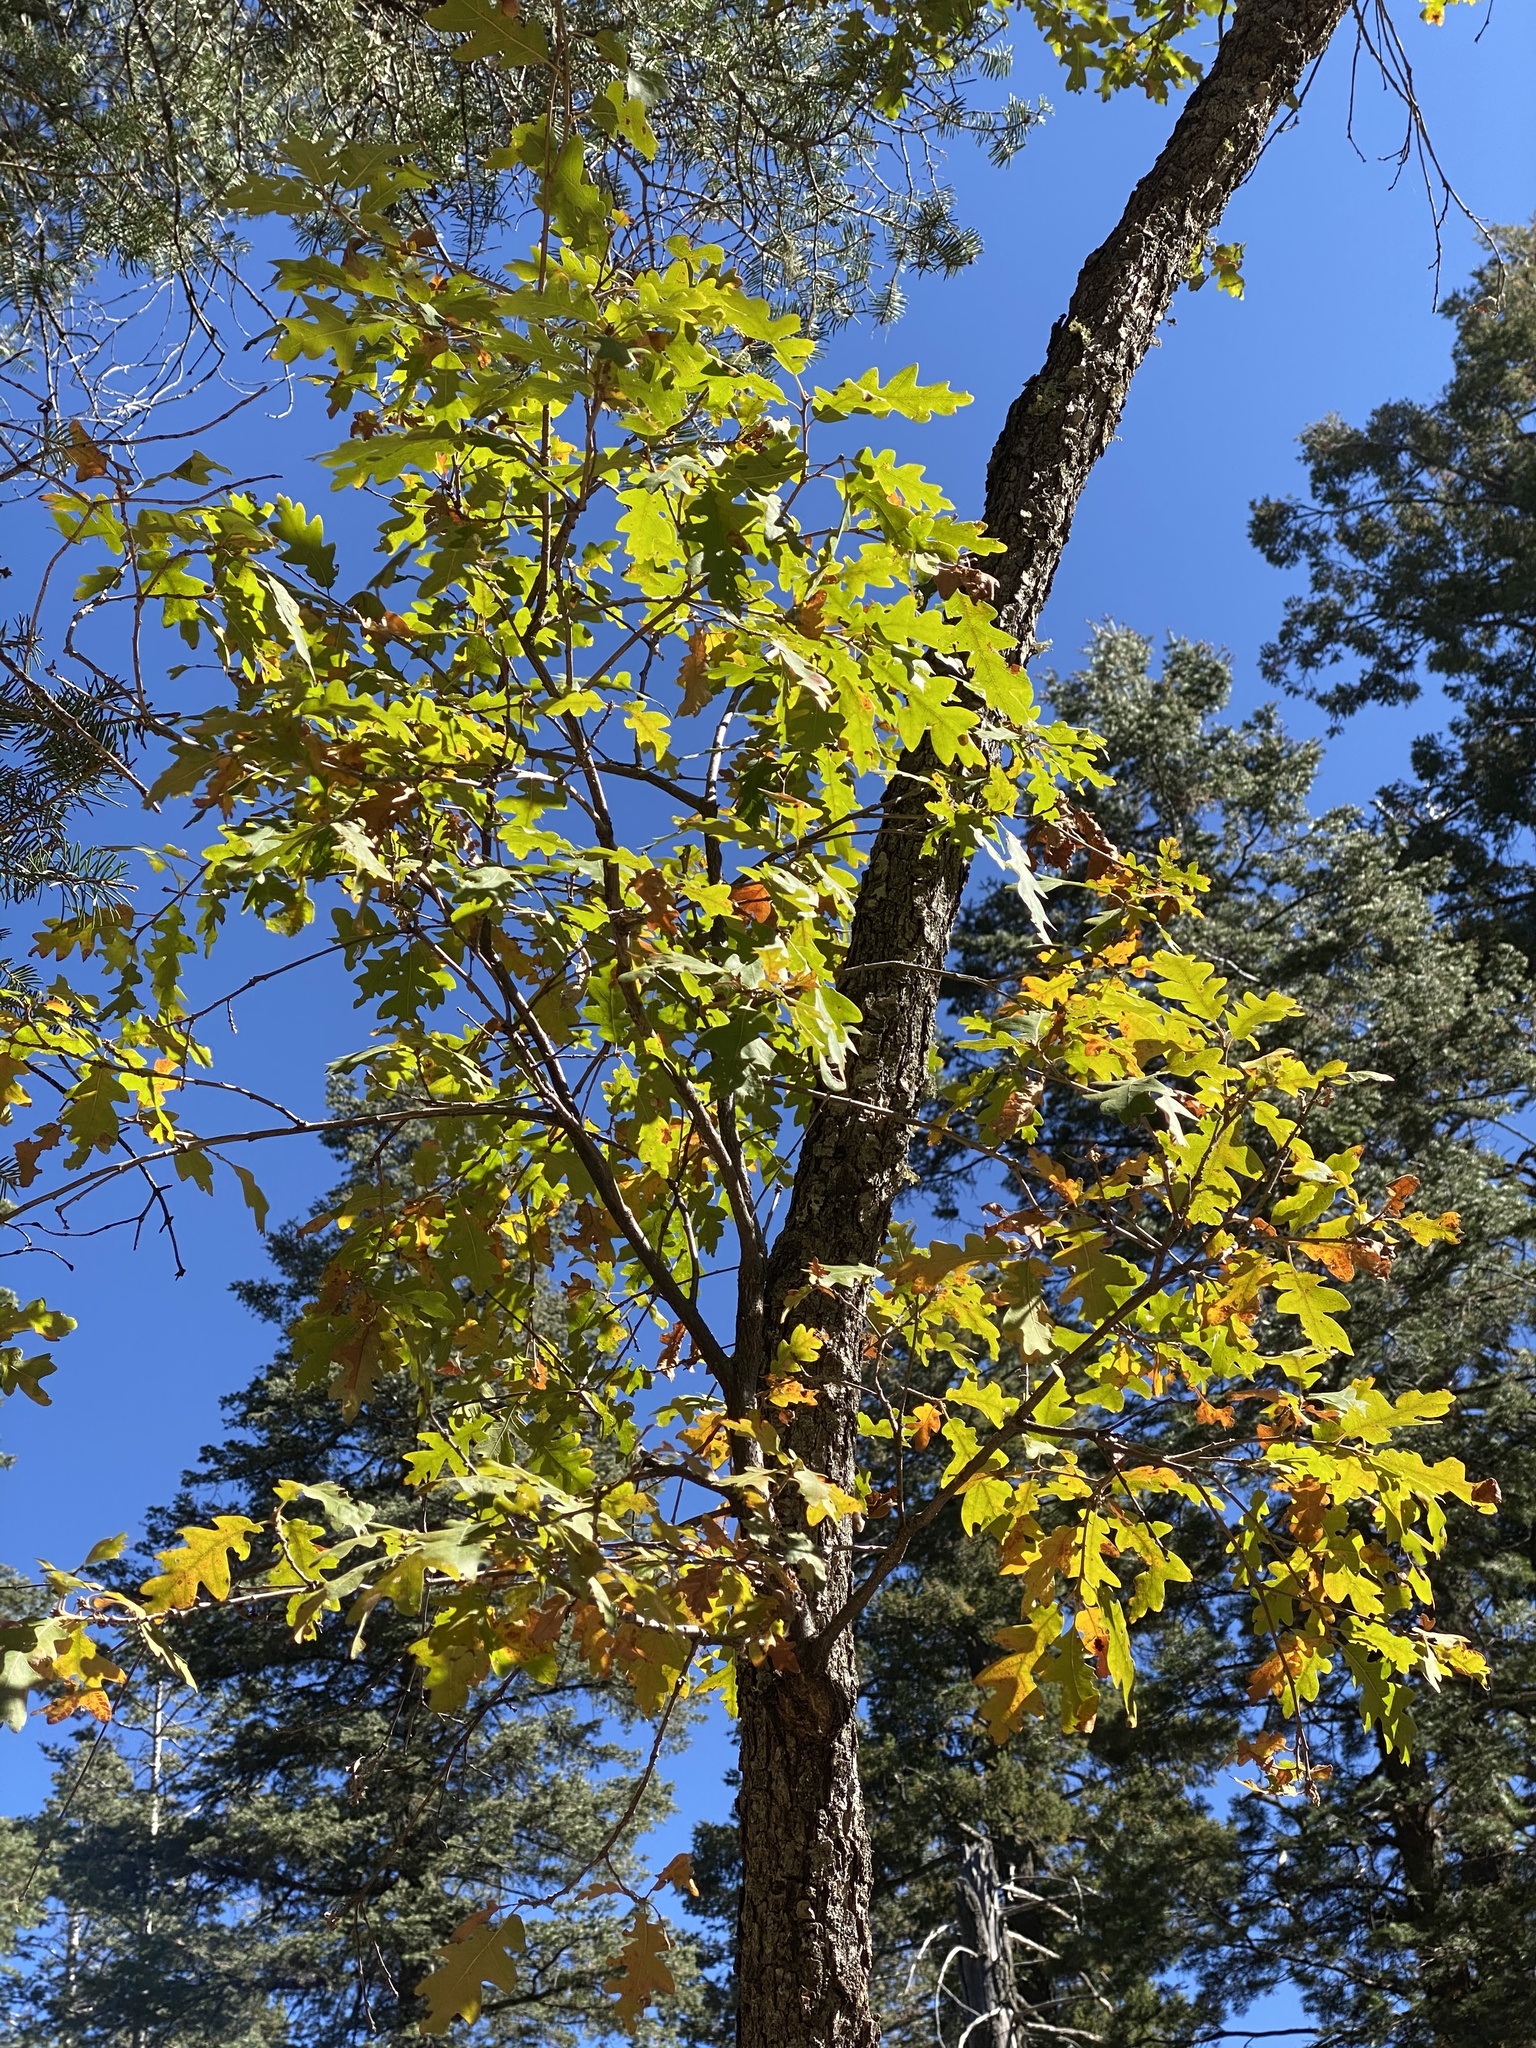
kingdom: Plantae
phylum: Tracheophyta
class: Magnoliopsida
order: Fagales
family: Fagaceae
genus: Quercus
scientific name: Quercus gambelii
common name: Gambel oak
